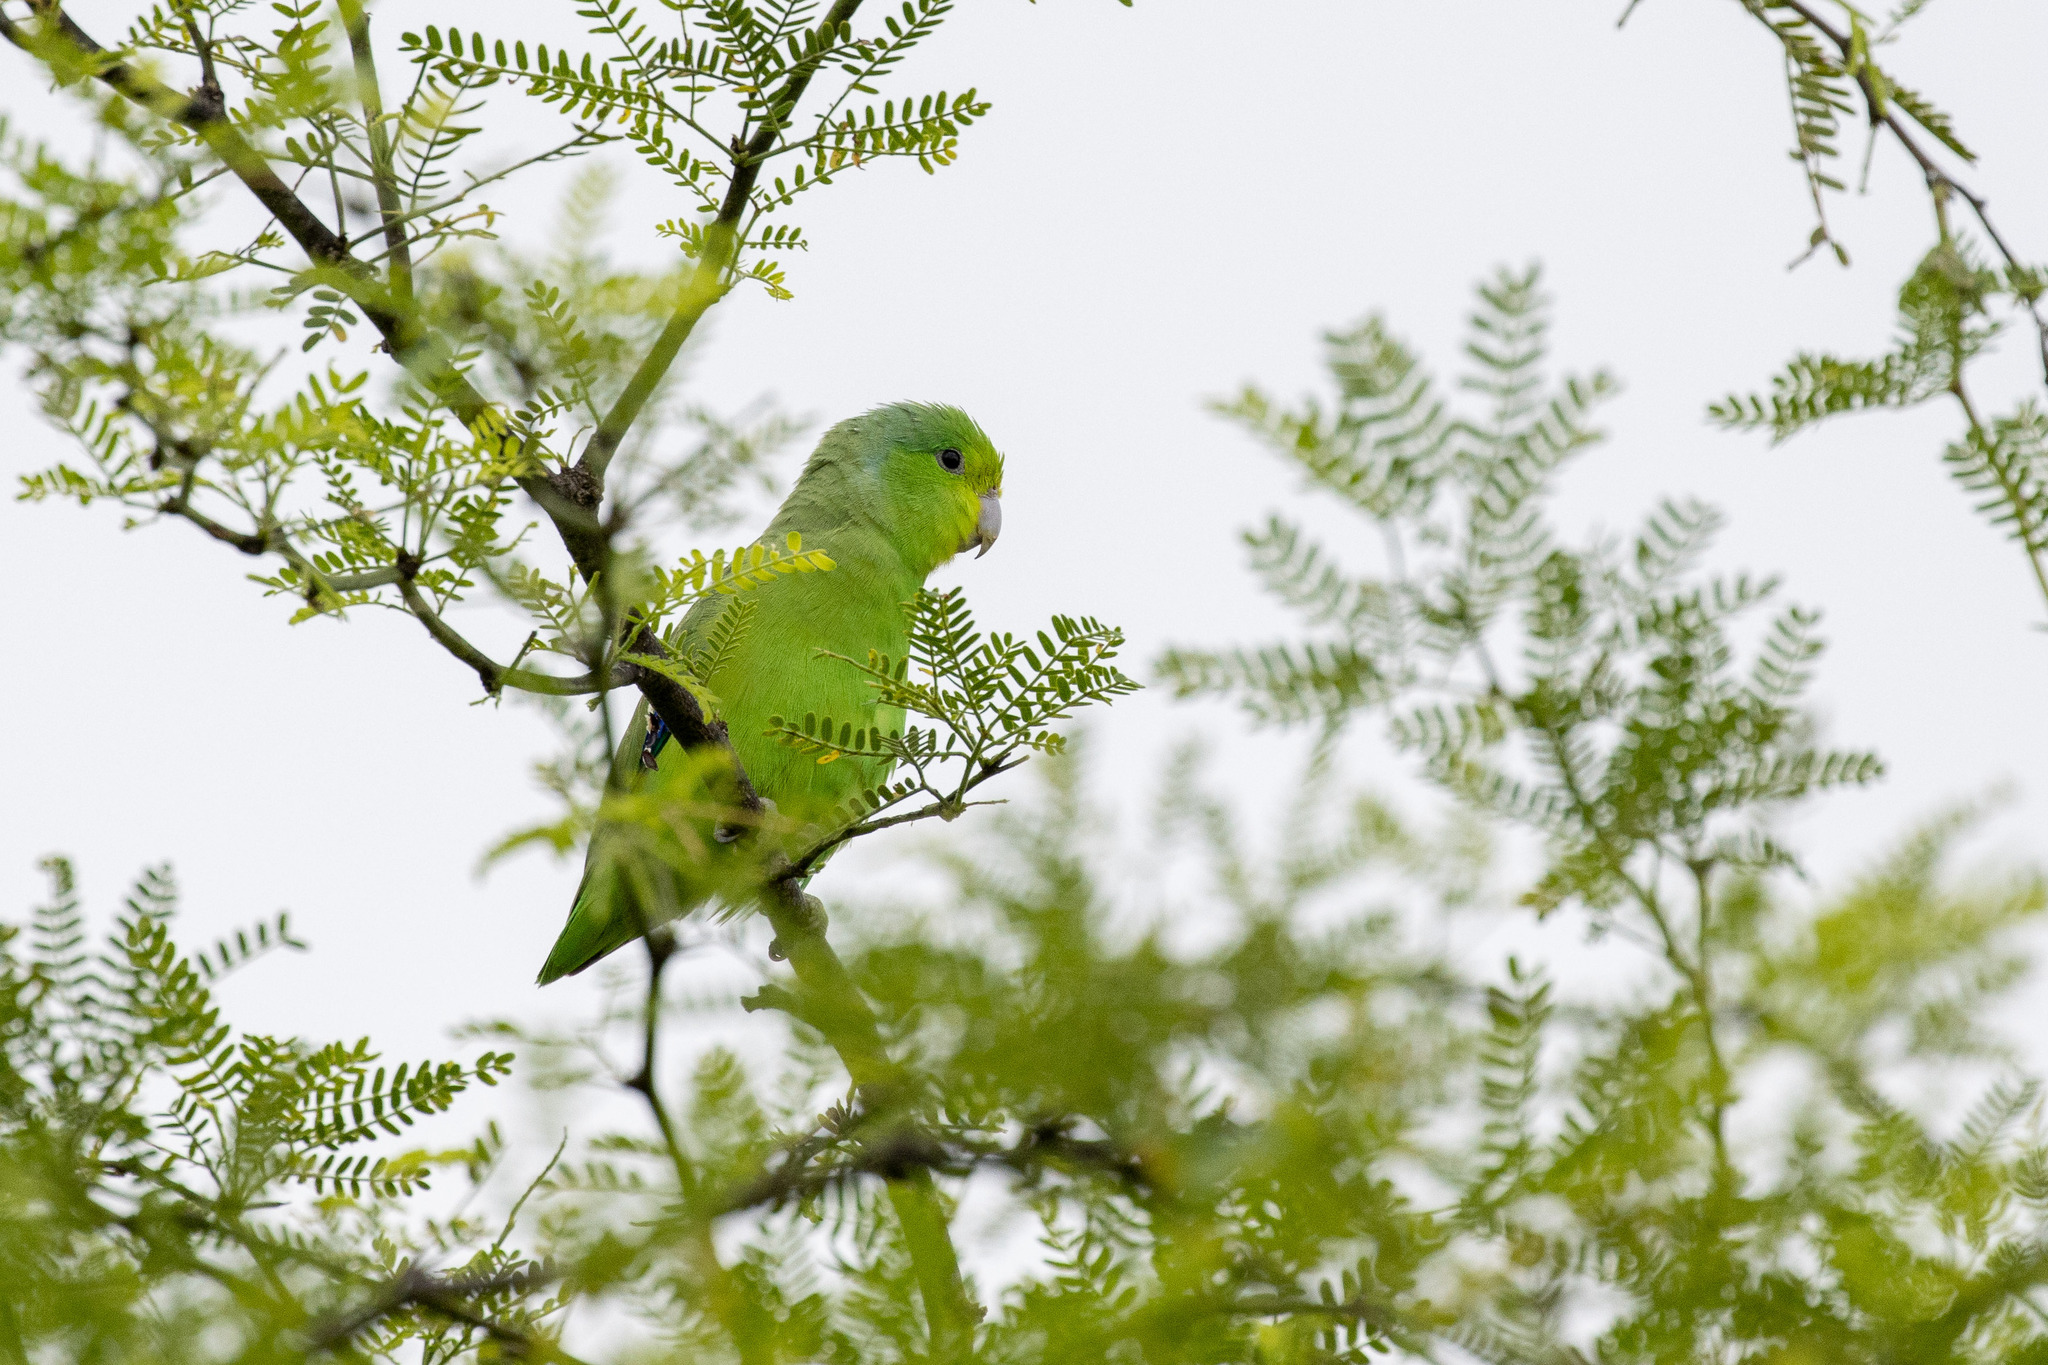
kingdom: Animalia
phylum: Chordata
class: Aves
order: Psittaciformes
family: Psittacidae
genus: Forpus
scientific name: Forpus xanthopterygius
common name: Blue-winged parrotlet
